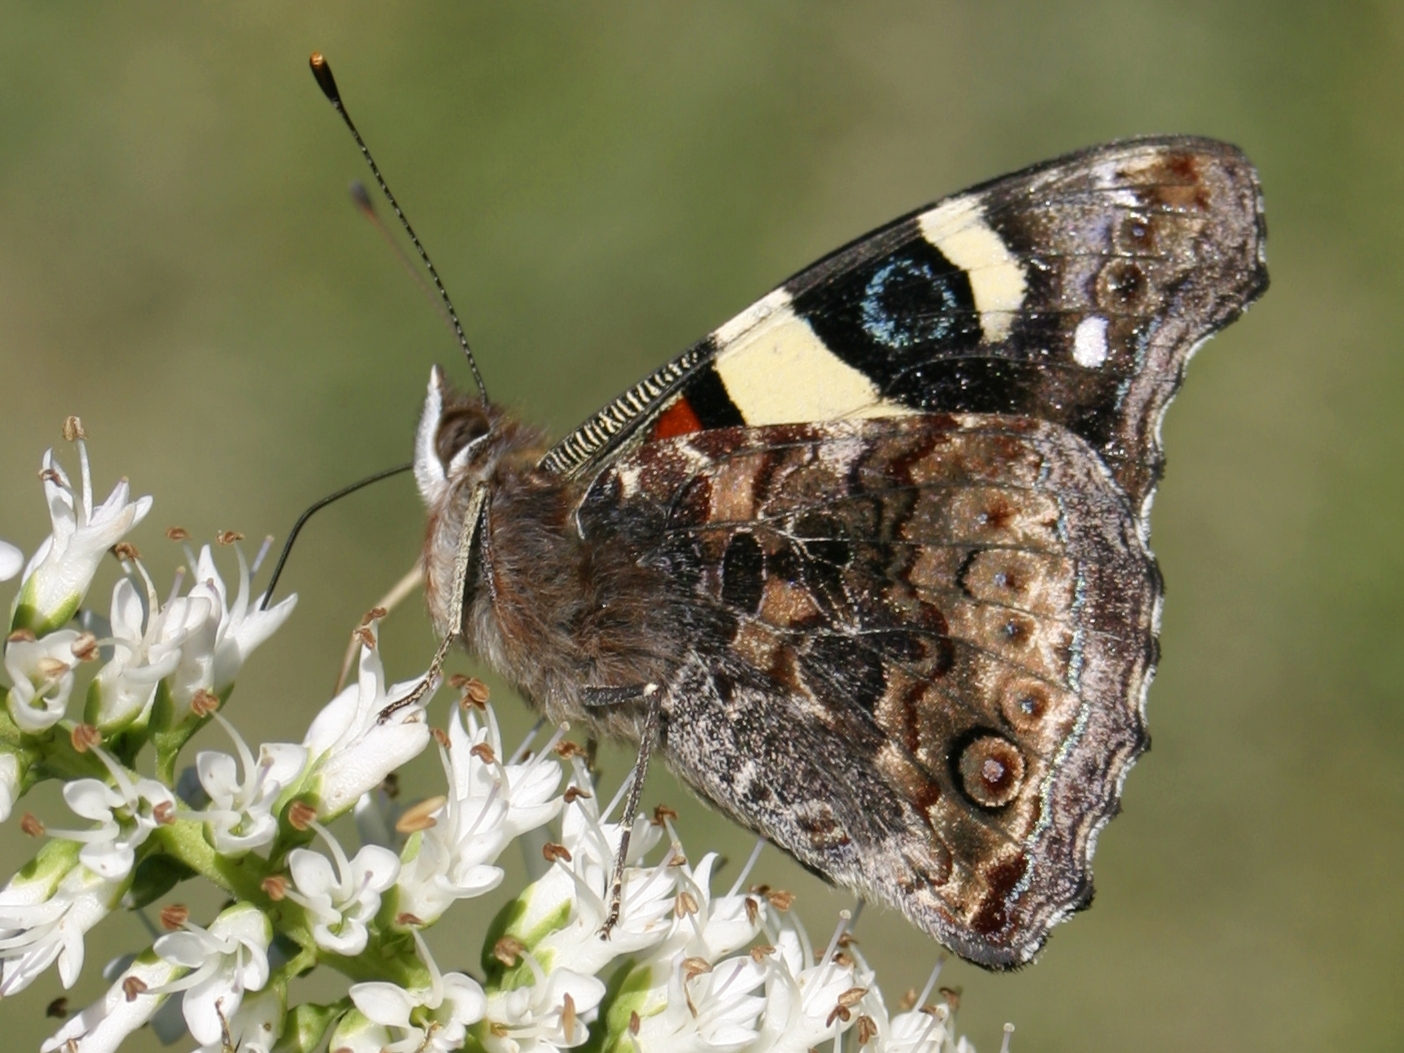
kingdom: Animalia
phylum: Arthropoda
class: Insecta
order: Lepidoptera
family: Nymphalidae
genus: Vanessa
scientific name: Vanessa itea
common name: Yellow admiral
